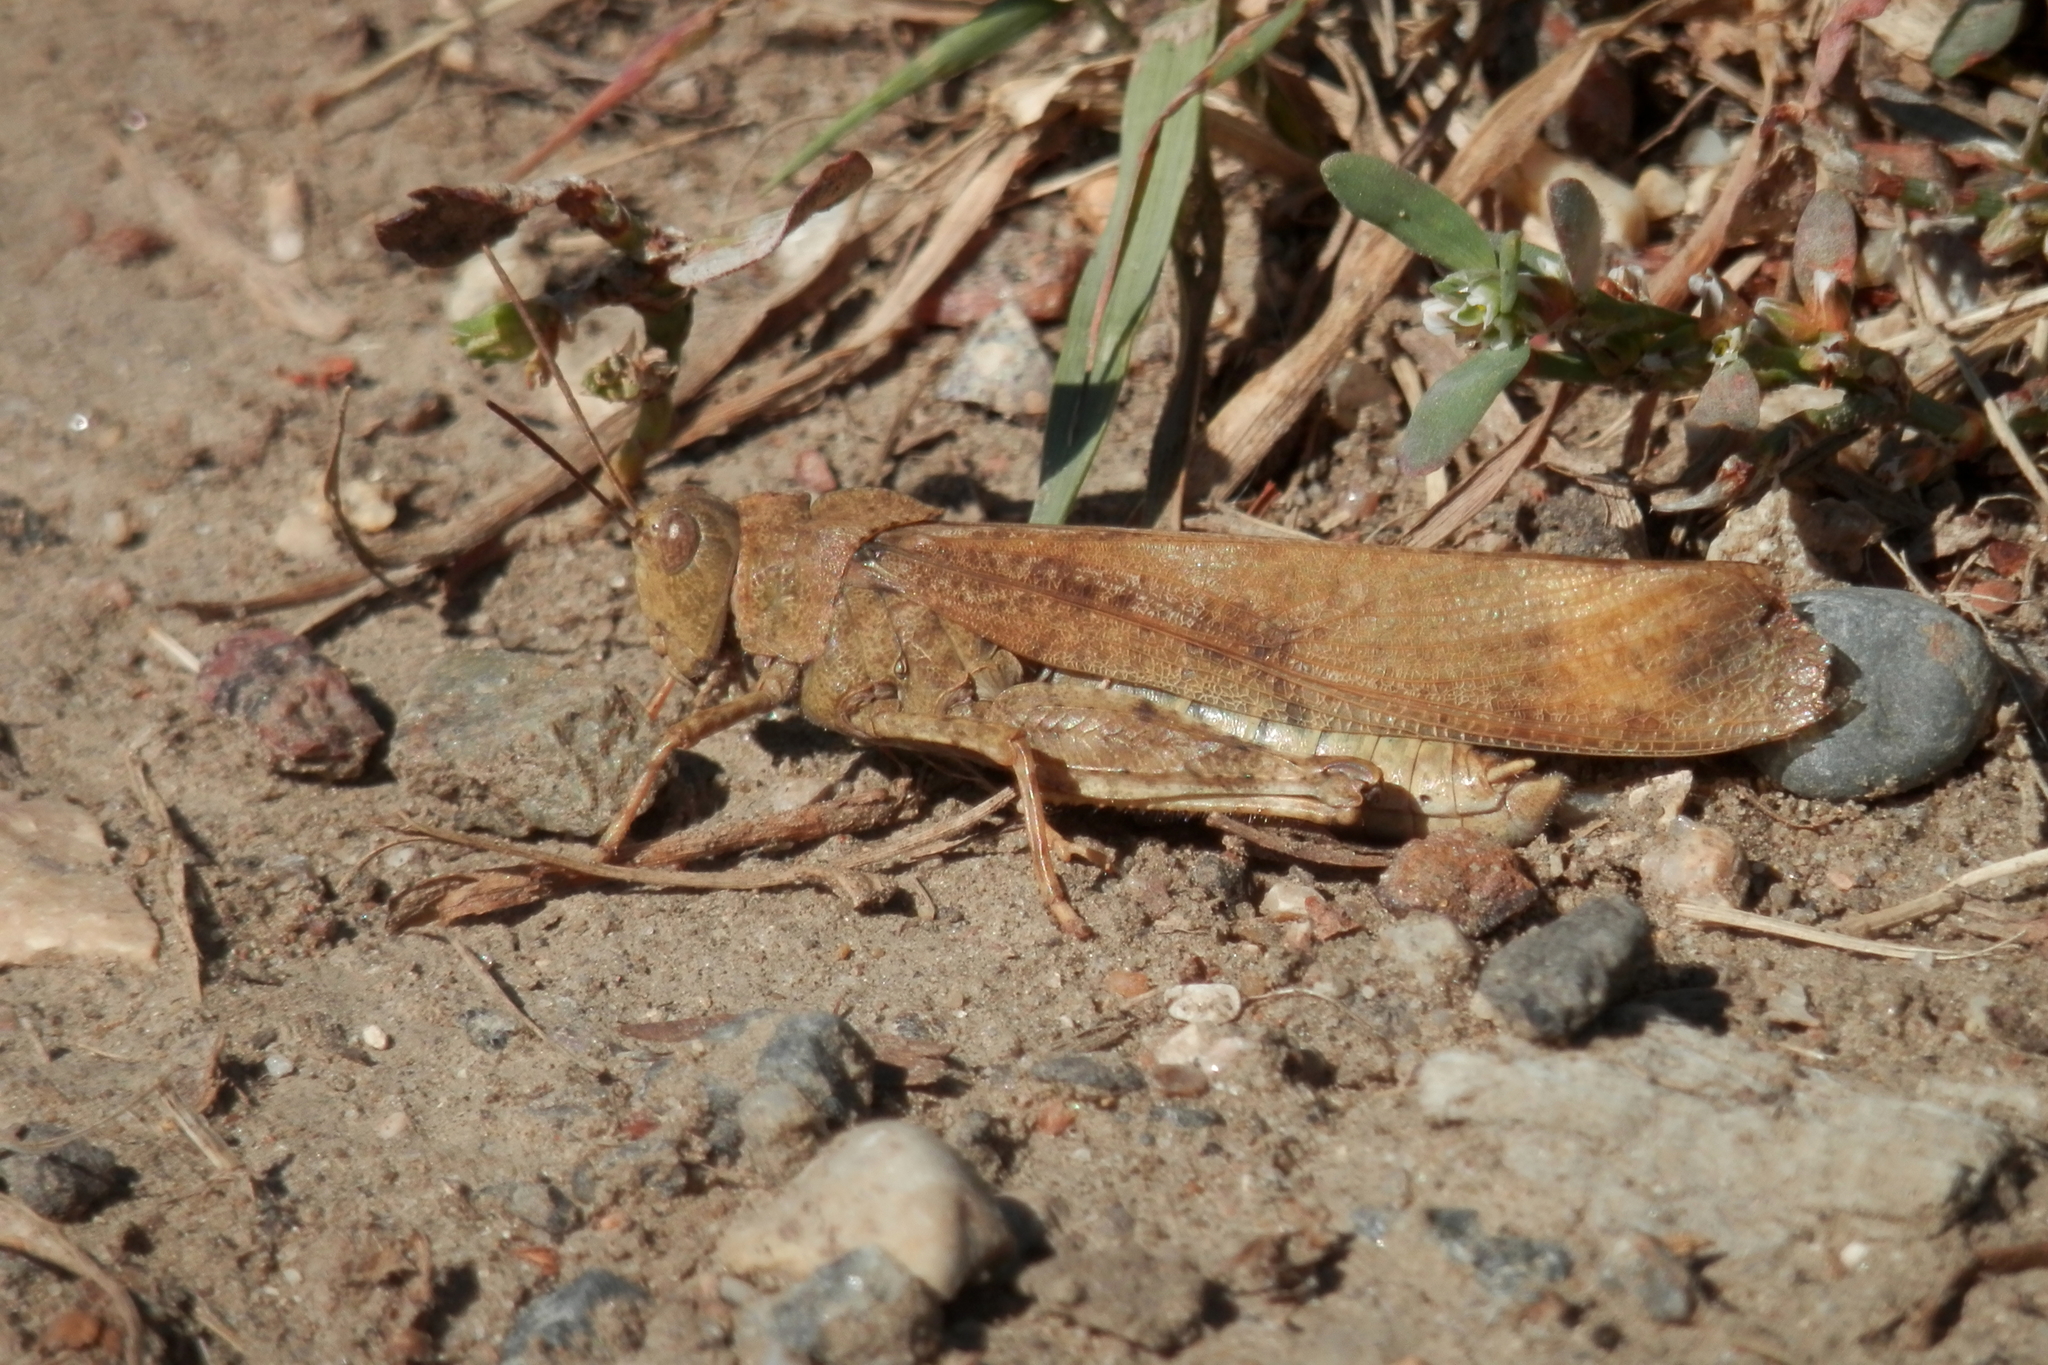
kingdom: Animalia
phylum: Arthropoda
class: Insecta
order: Orthoptera
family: Acrididae
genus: Dissosteira
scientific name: Dissosteira carolina
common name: Carolina grasshopper
